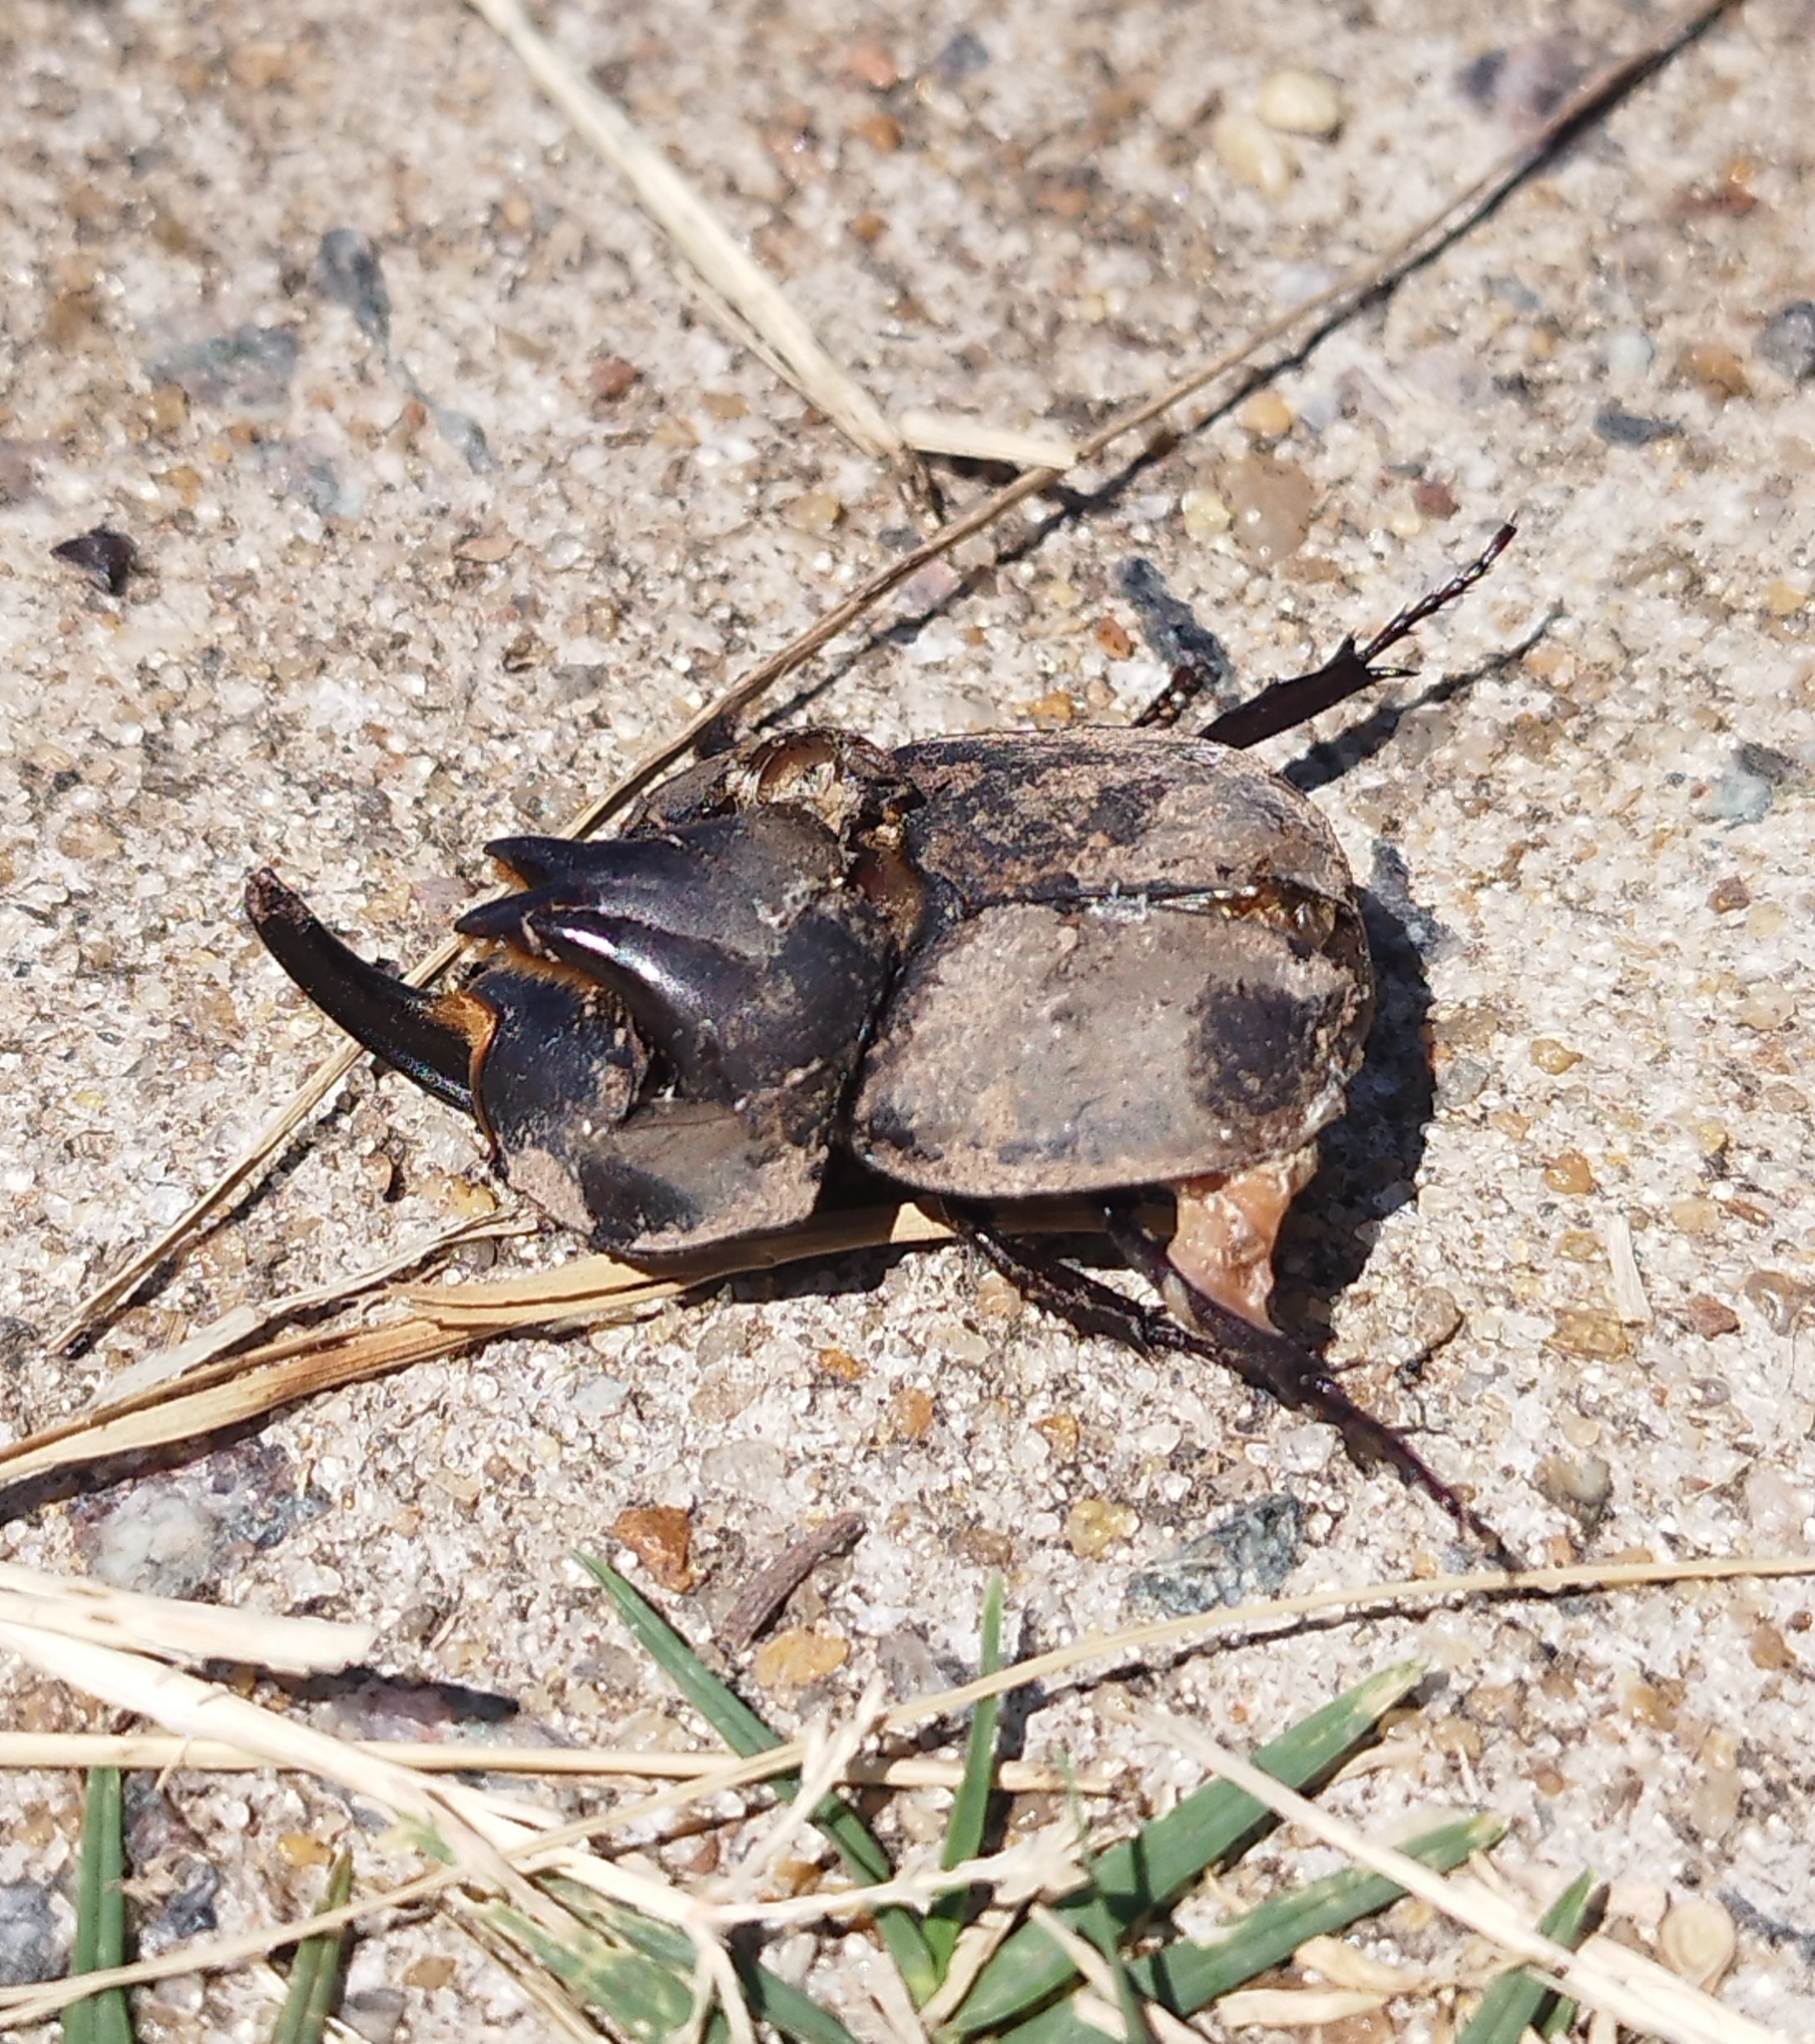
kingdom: Animalia
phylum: Arthropoda
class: Insecta
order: Coleoptera
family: Scarabaeidae
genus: Diloboderus
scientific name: Diloboderus abderus
